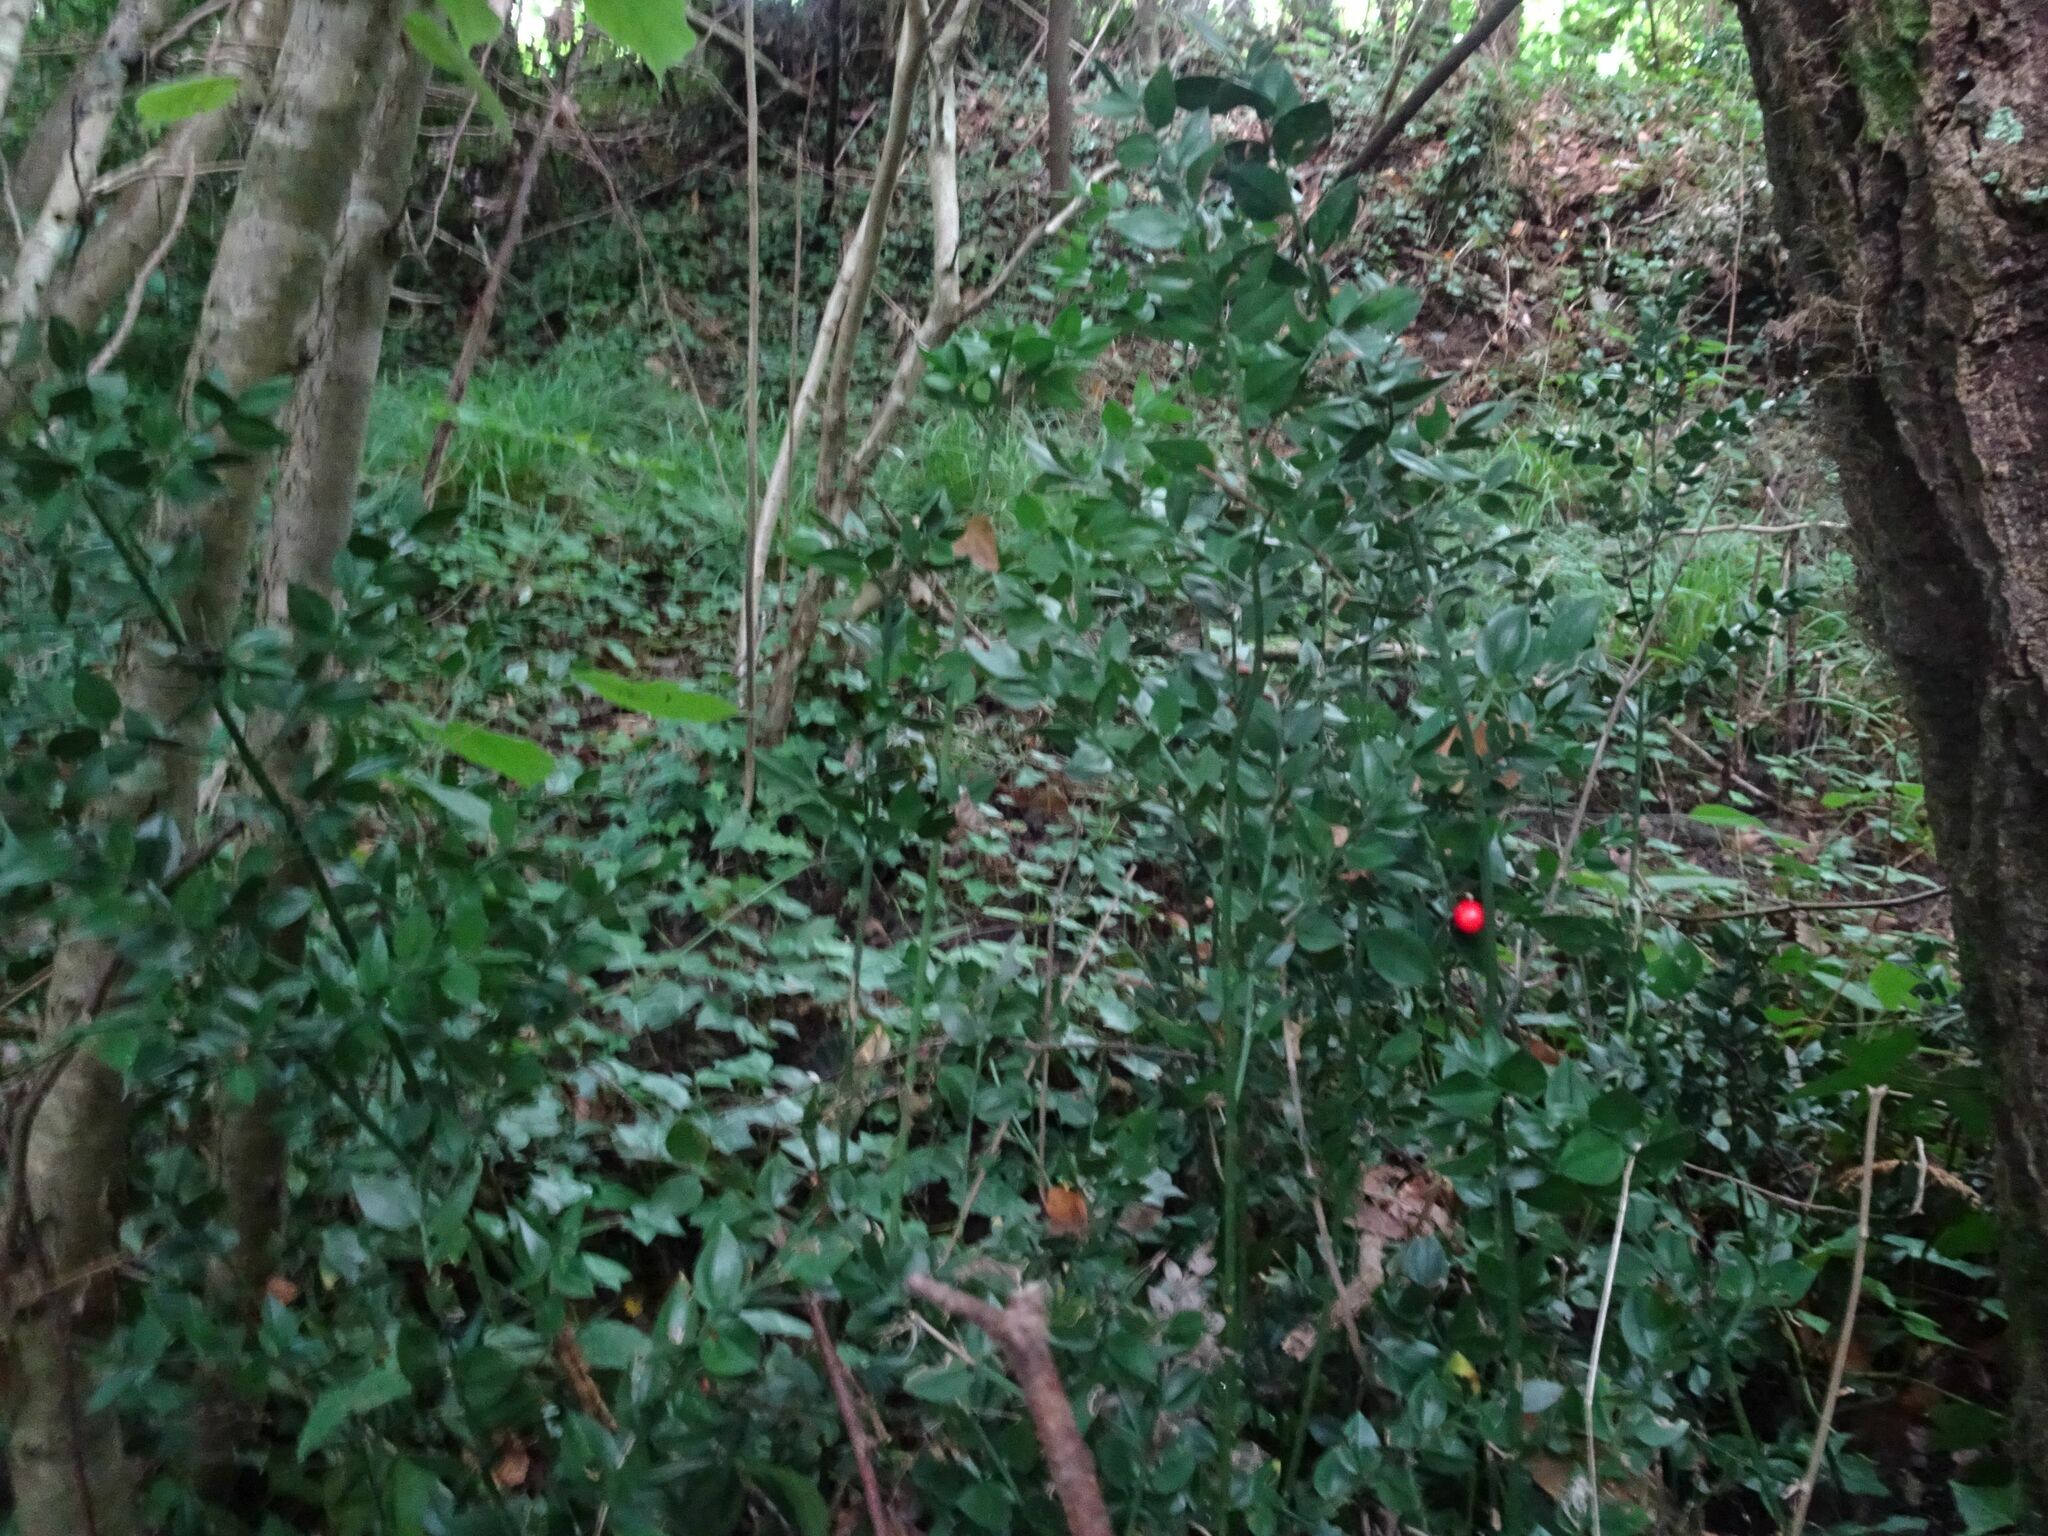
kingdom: Plantae
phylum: Tracheophyta
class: Liliopsida
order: Asparagales
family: Asparagaceae
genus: Ruscus
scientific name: Ruscus aculeatus
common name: Butcher's-broom
